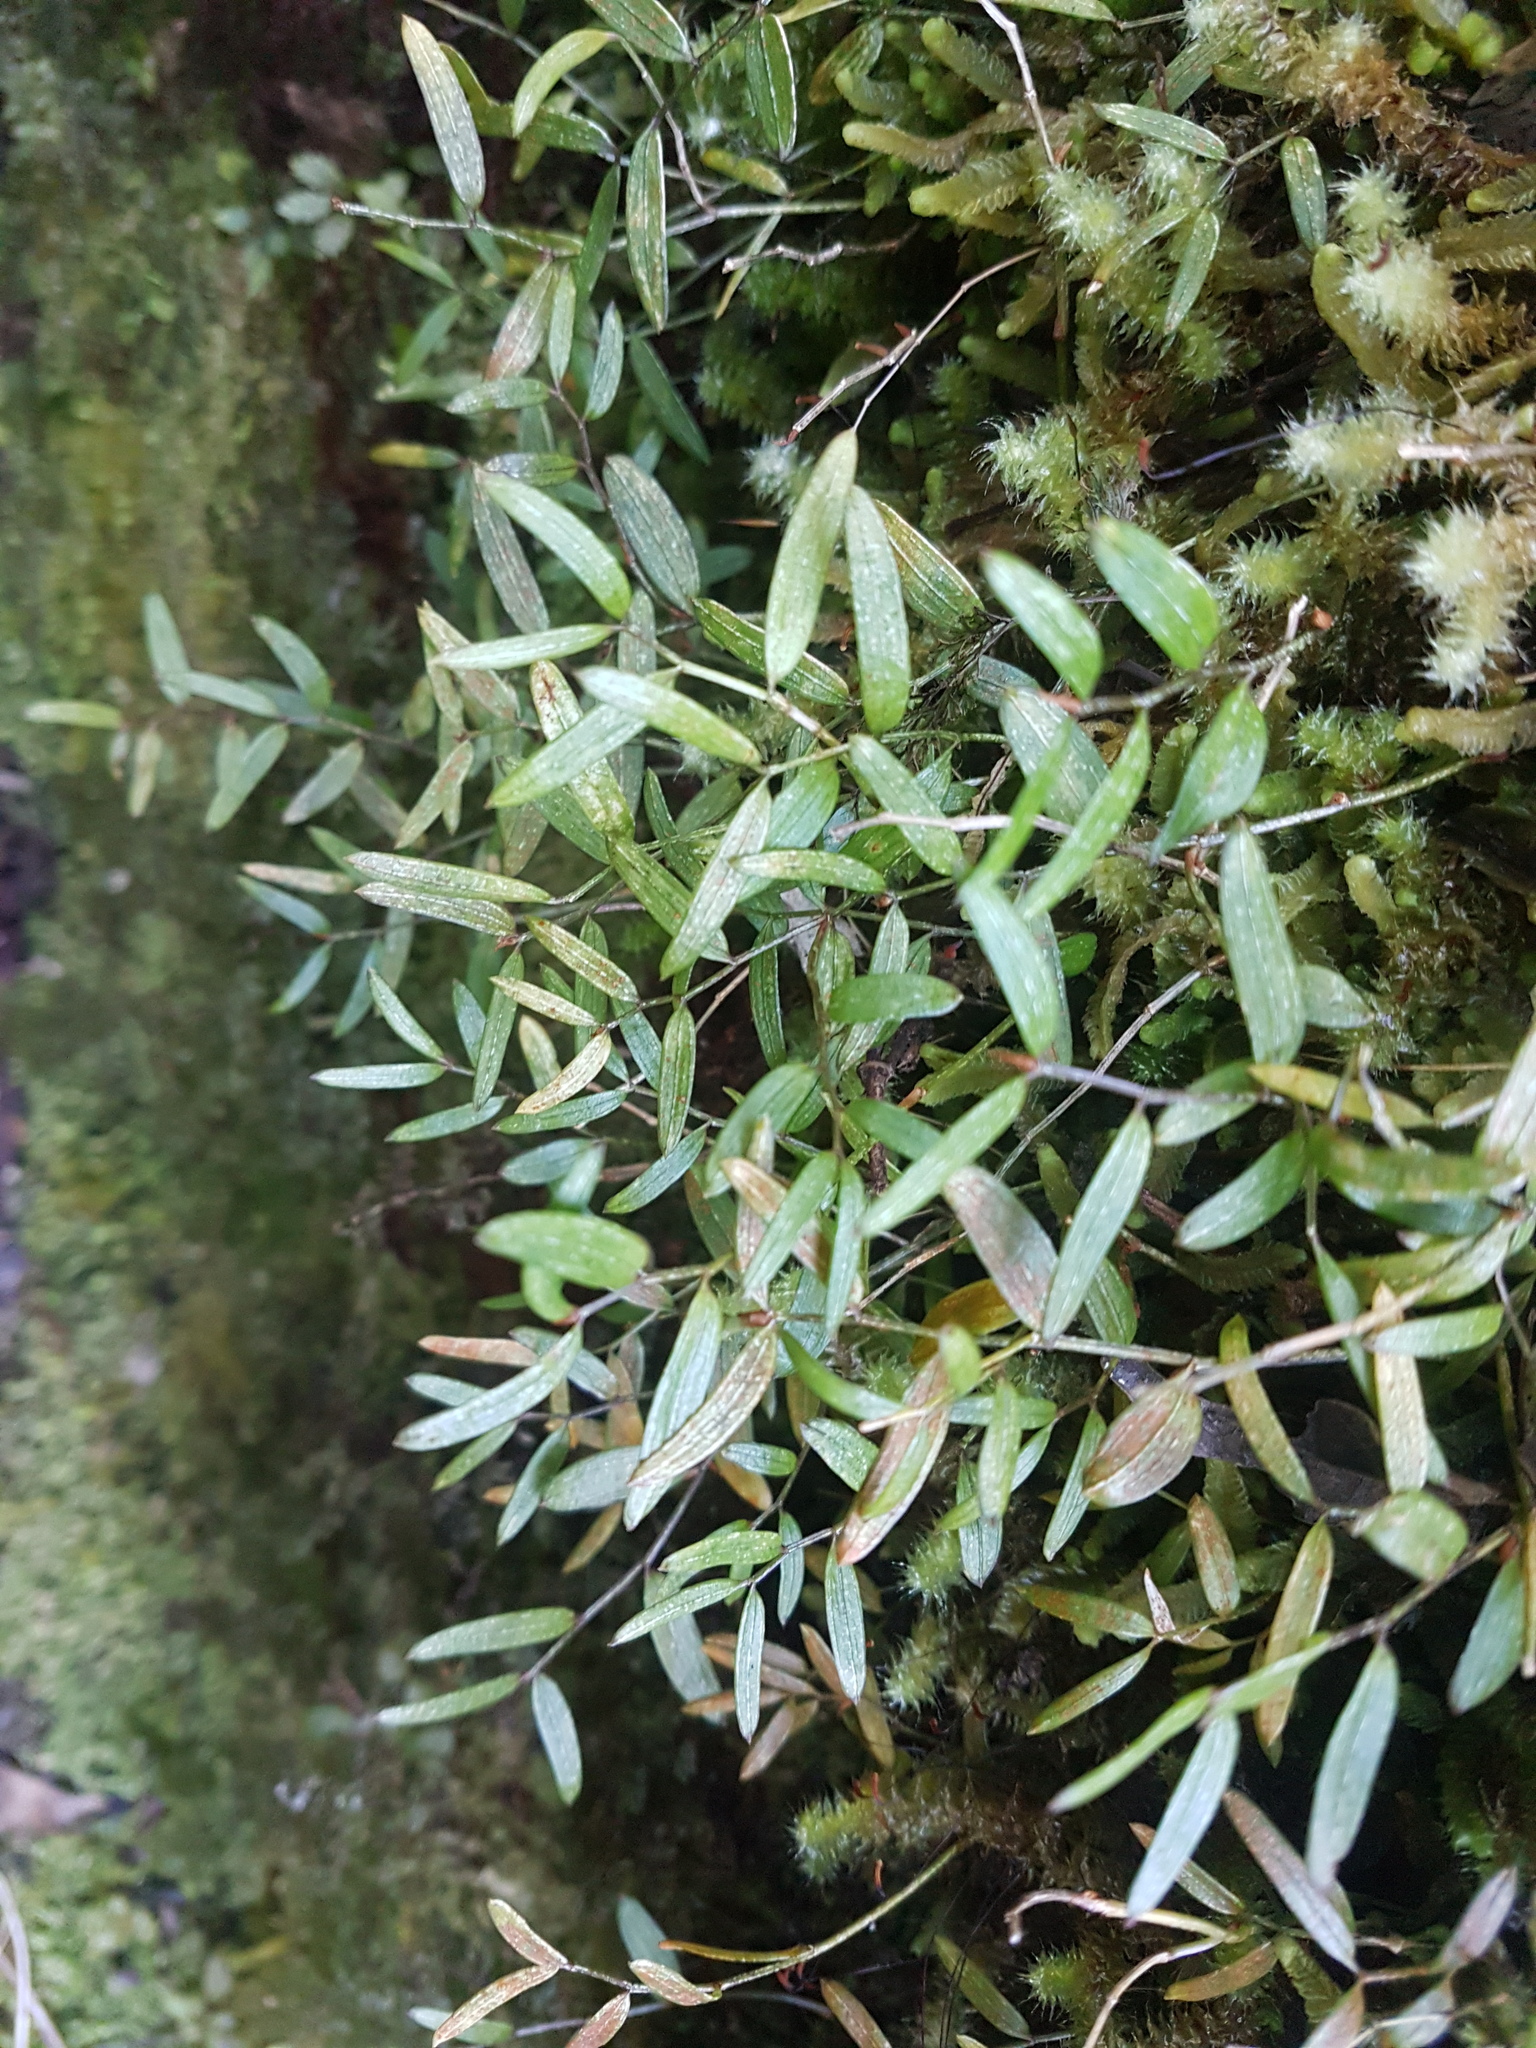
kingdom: Plantae
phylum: Tracheophyta
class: Liliopsida
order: Liliales
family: Alstroemeriaceae
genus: Luzuriaga
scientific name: Luzuriaga parviflora
